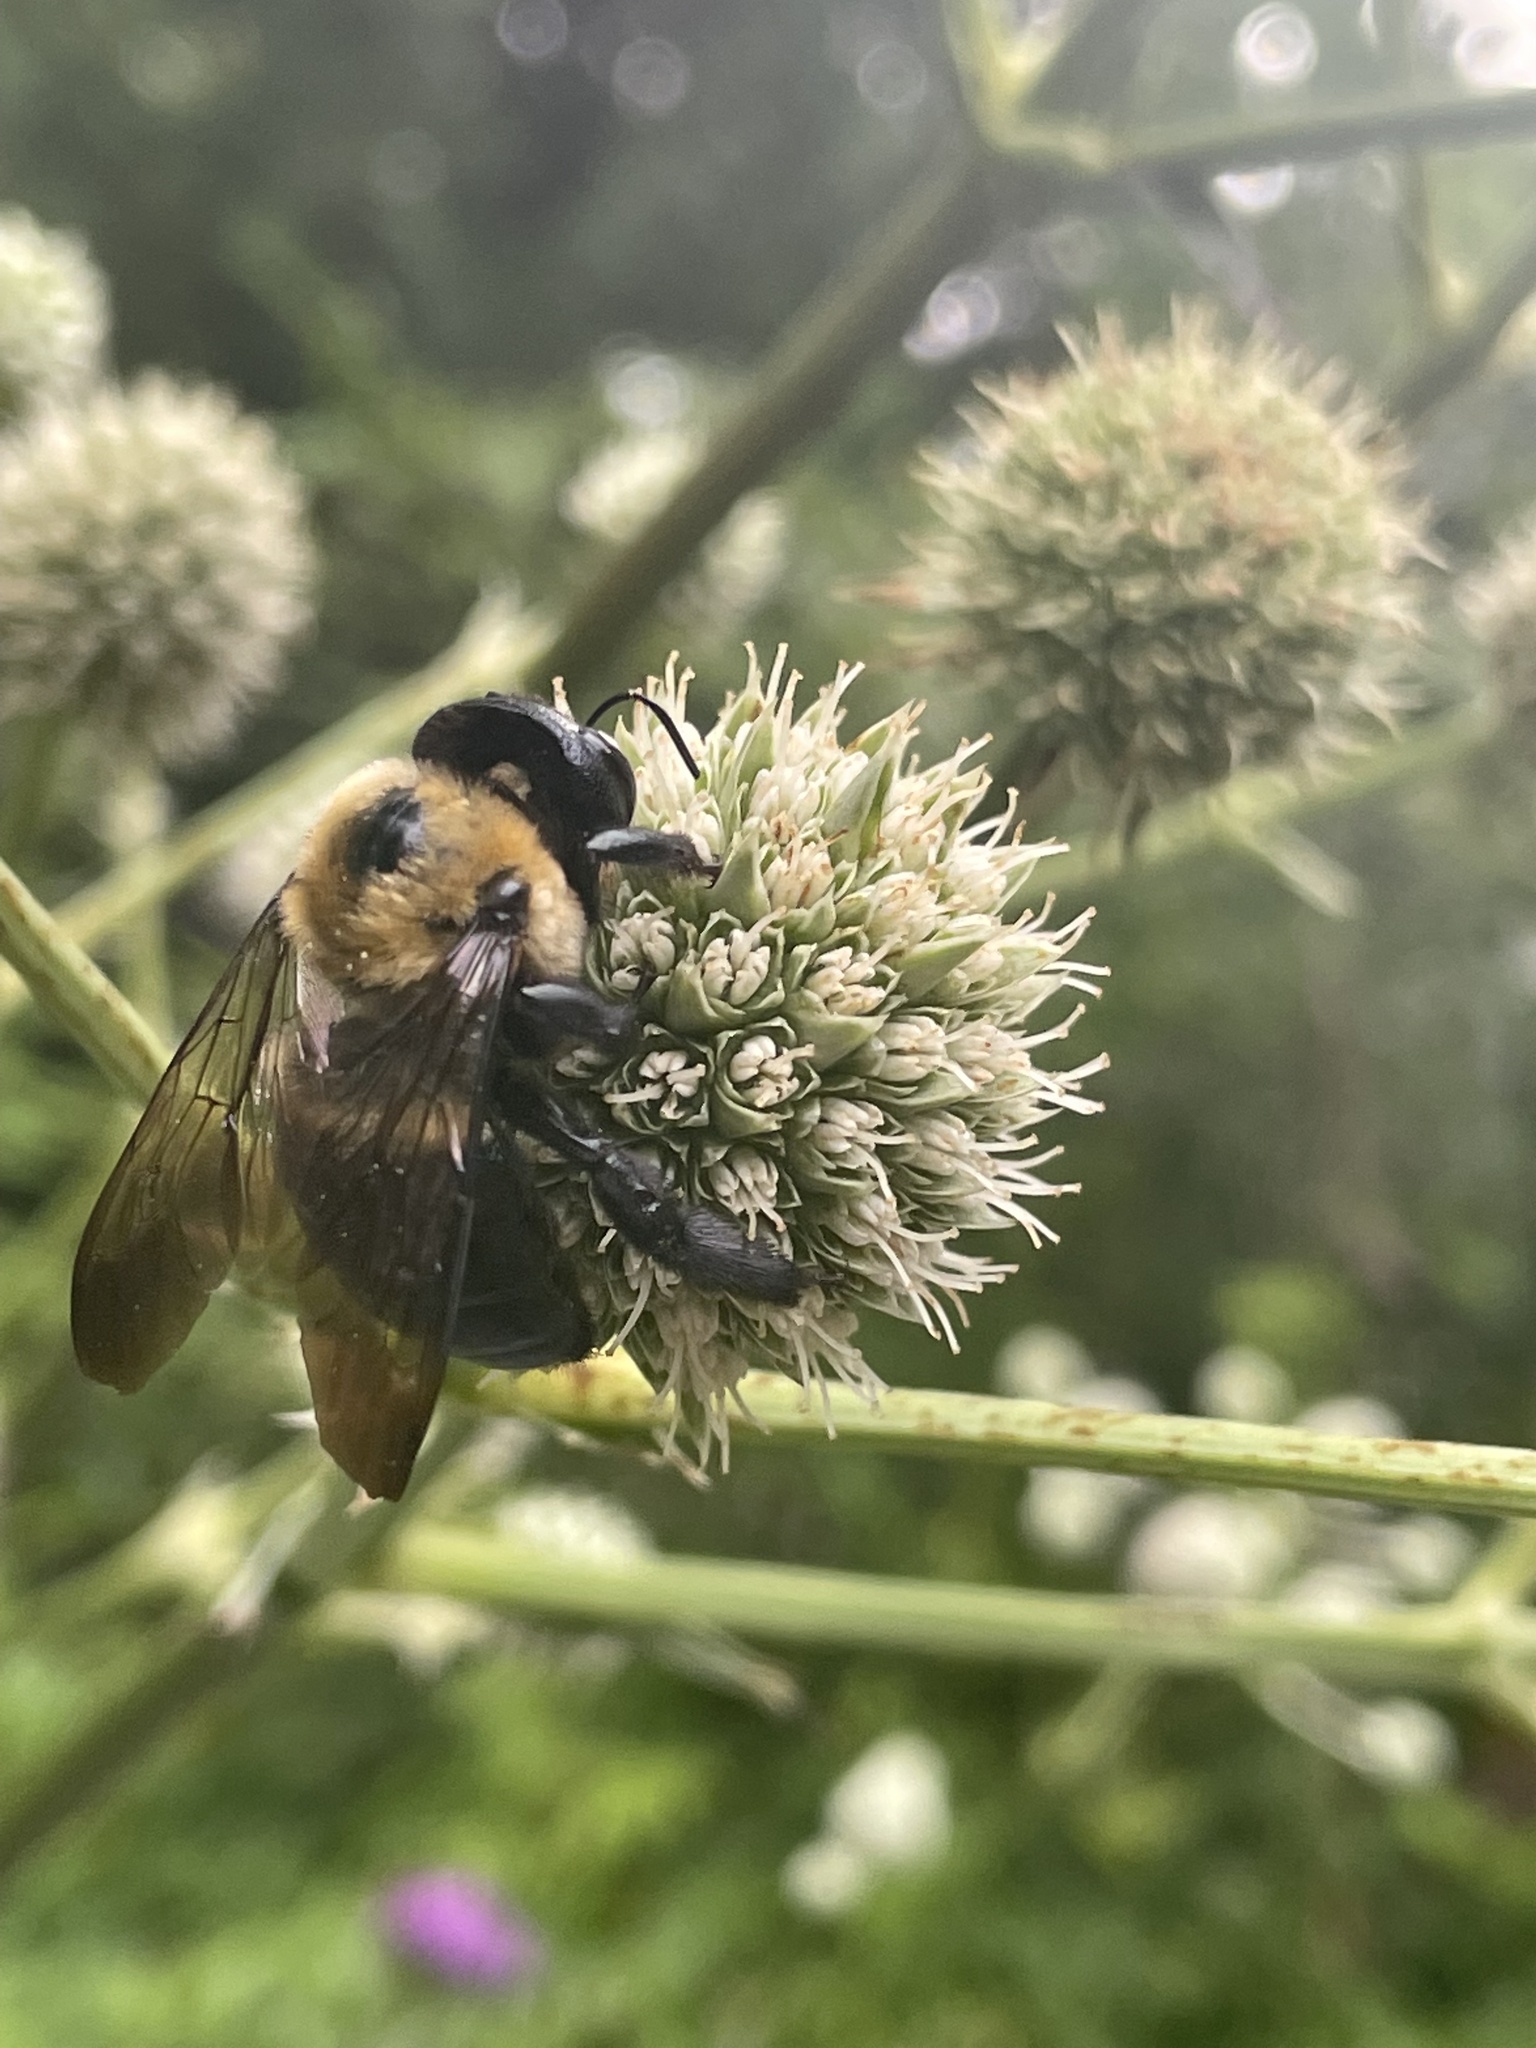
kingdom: Animalia
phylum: Arthropoda
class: Insecta
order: Hymenoptera
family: Apidae
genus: Xylocopa
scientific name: Xylocopa virginica
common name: Carpenter bee
